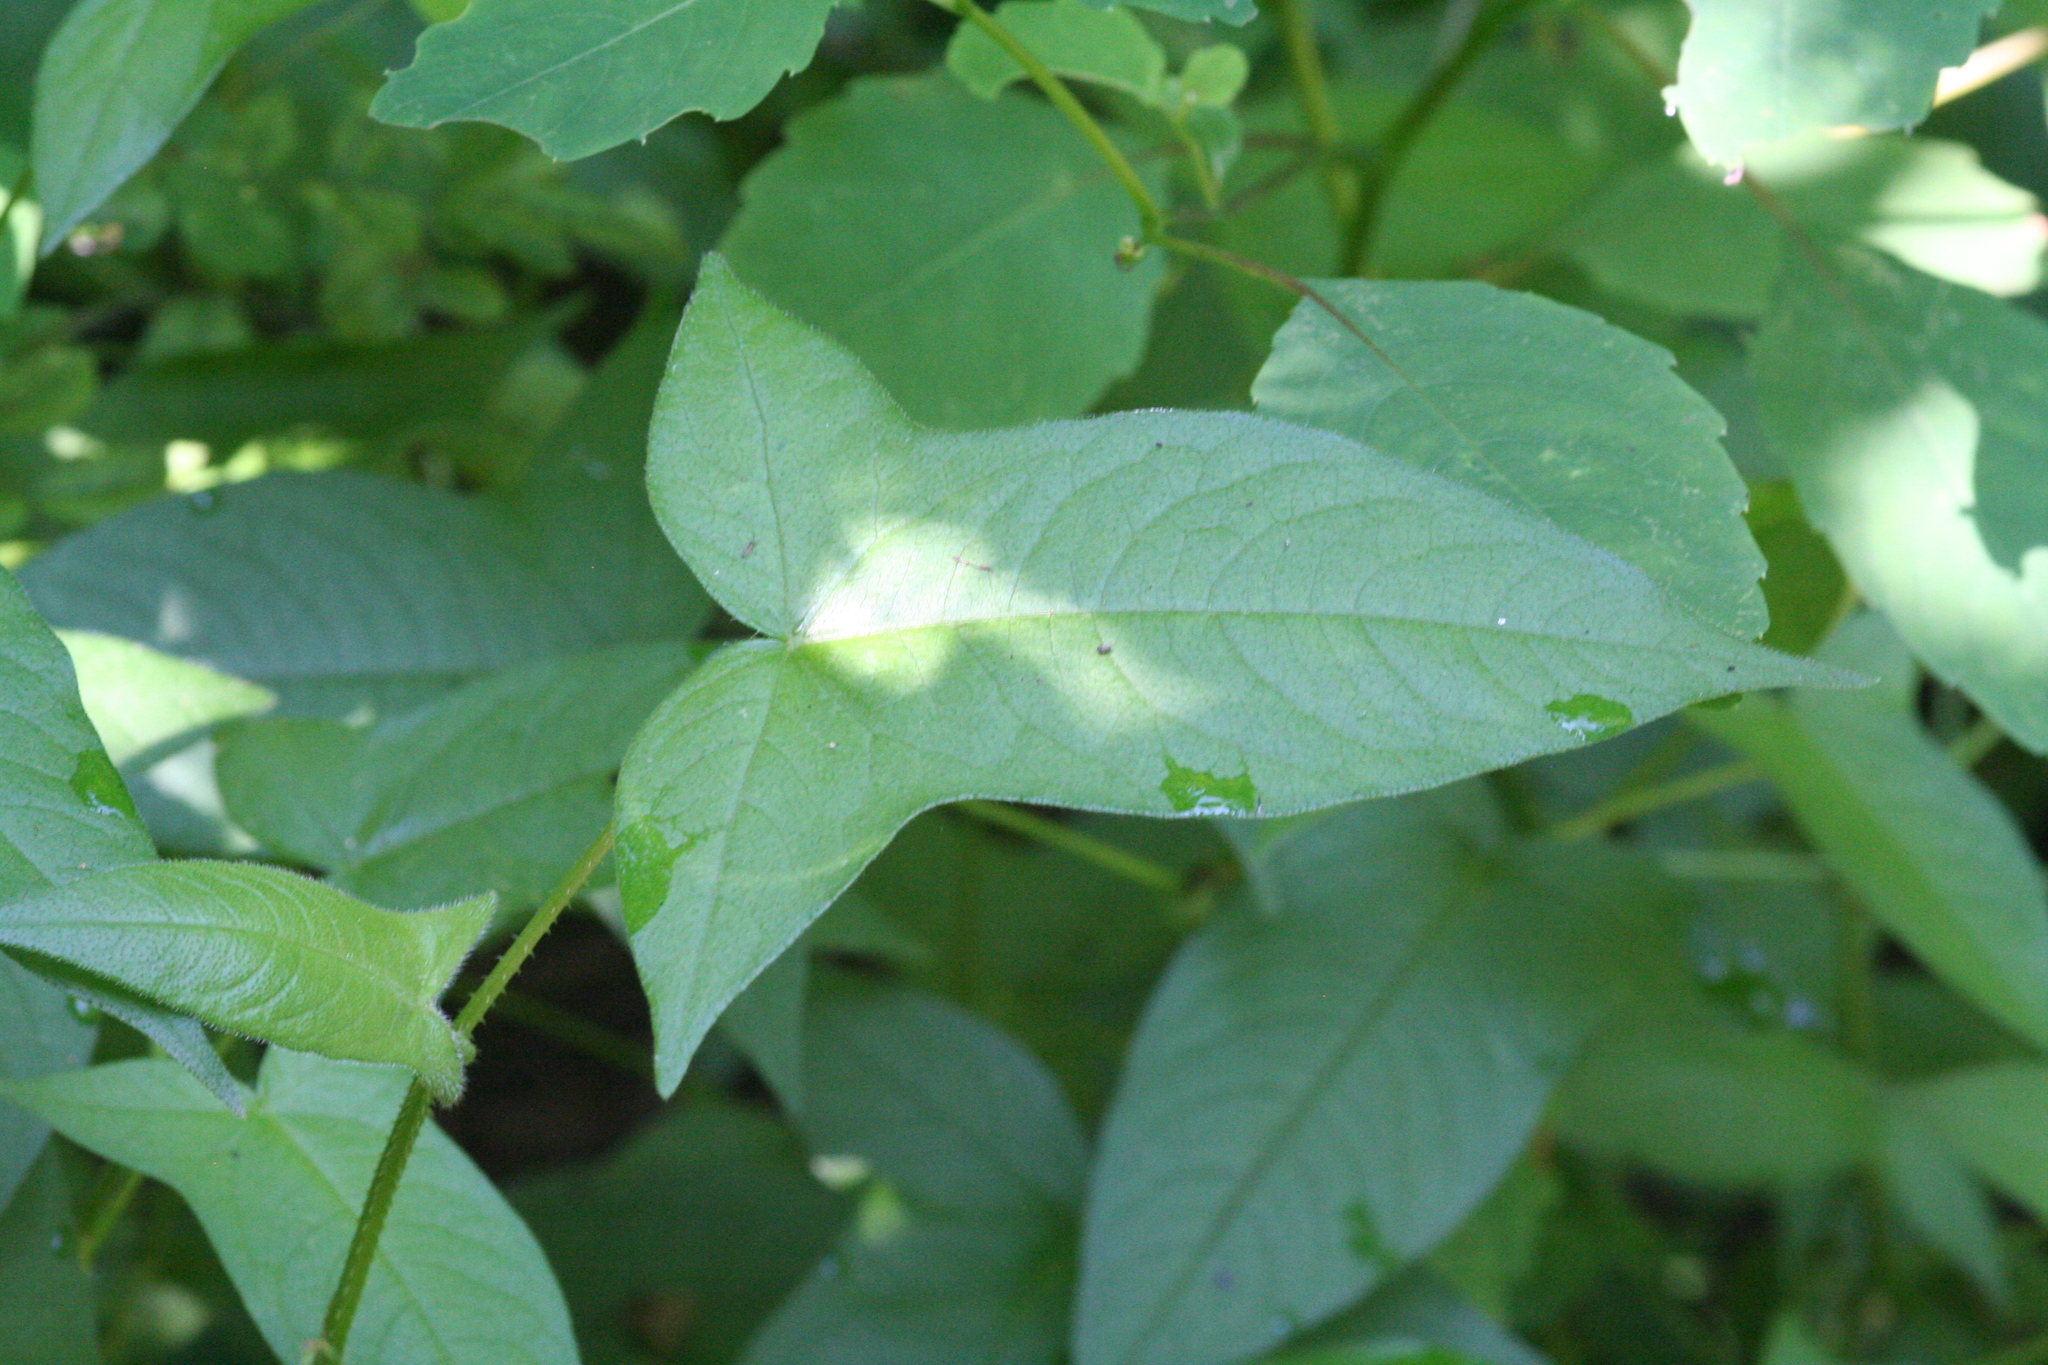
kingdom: Plantae
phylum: Tracheophyta
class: Magnoliopsida
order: Caryophyllales
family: Polygonaceae
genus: Persicaria
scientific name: Persicaria arifolia
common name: Halberd-leaved tear-thumb
